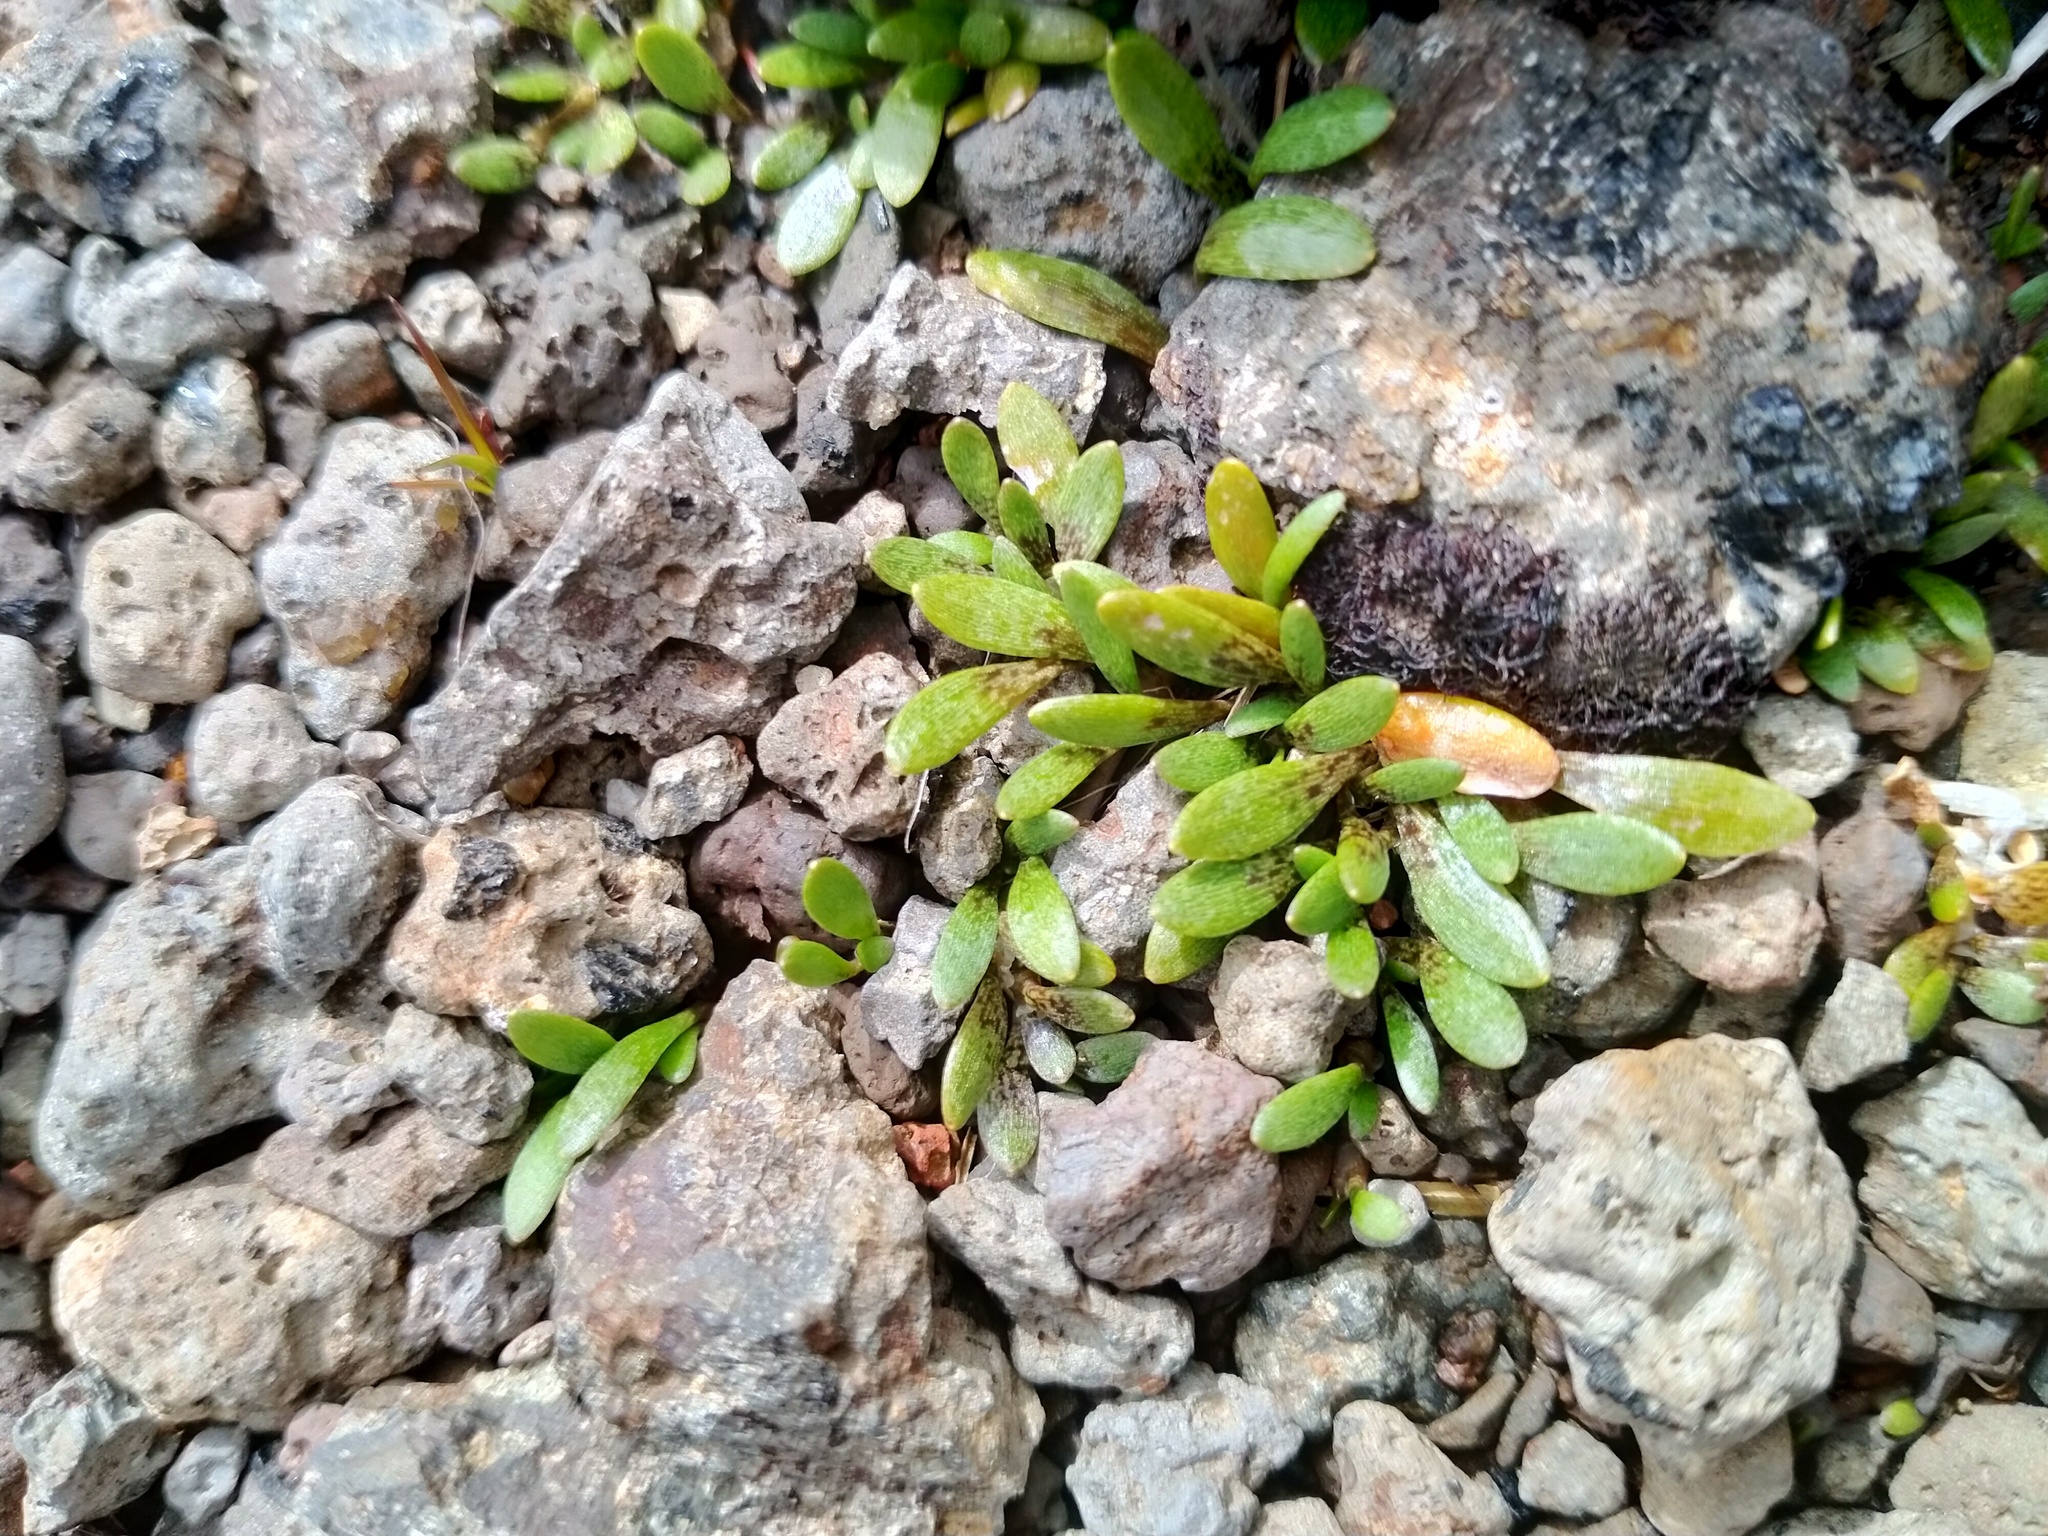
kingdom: Plantae
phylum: Tracheophyta
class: Magnoliopsida
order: Ericales
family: Primulaceae
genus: Samolus
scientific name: Samolus repens
